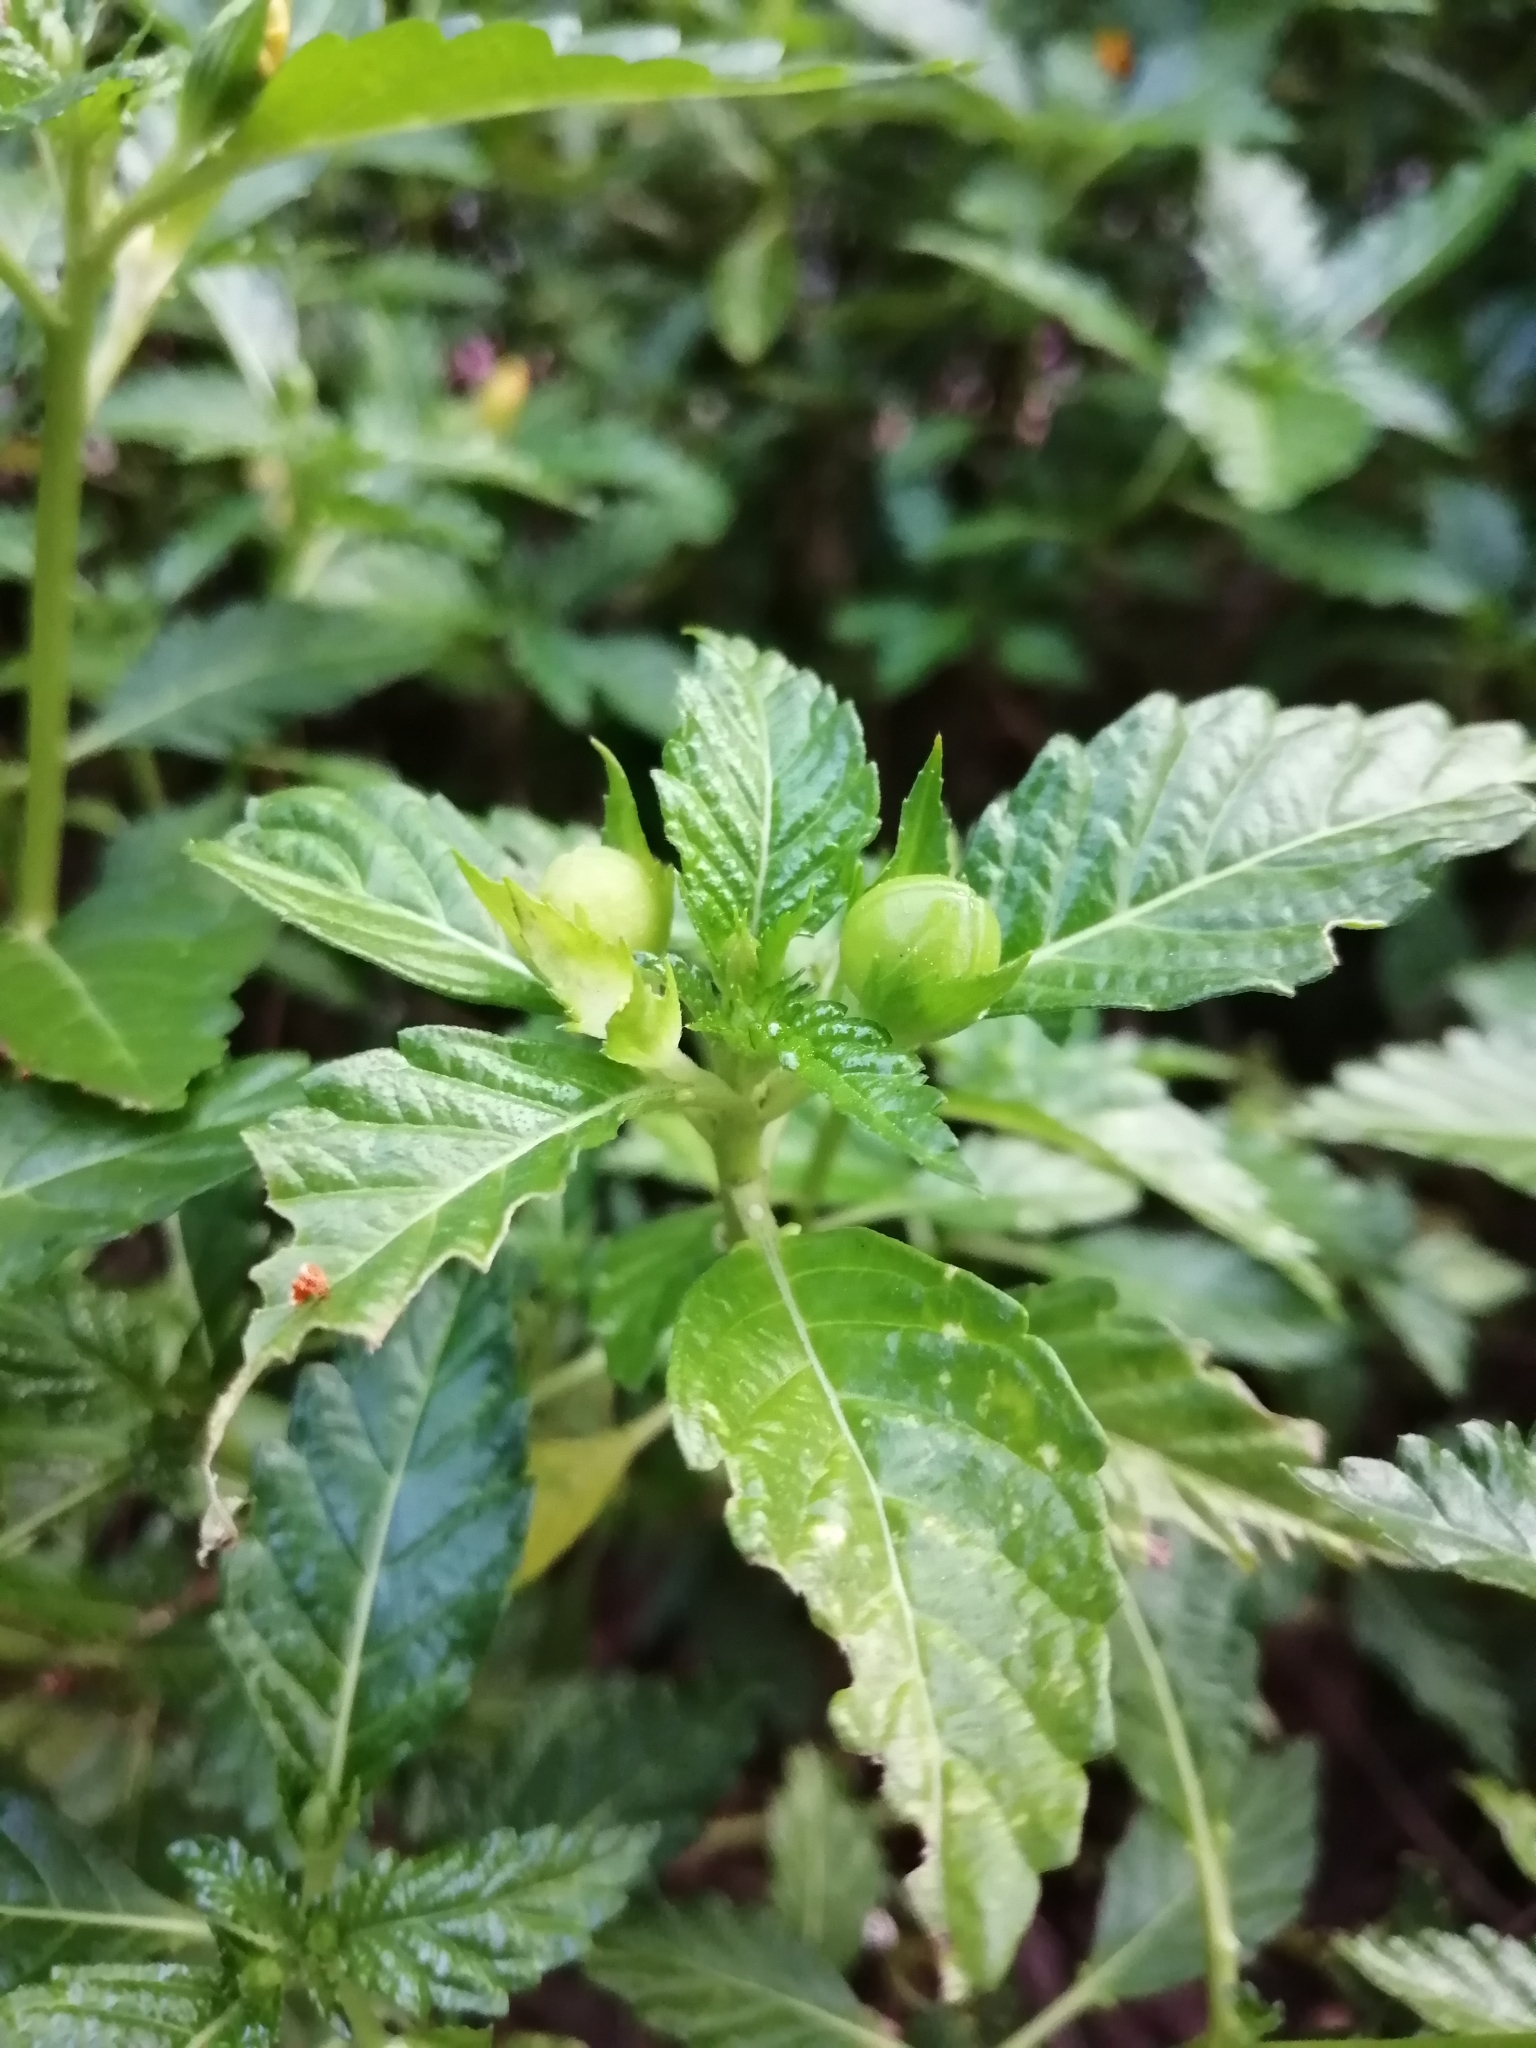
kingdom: Plantae
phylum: Tracheophyta
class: Magnoliopsida
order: Malpighiales
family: Turneraceae
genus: Turnera
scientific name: Turnera ulmifolia
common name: Ramgoat dashalong
